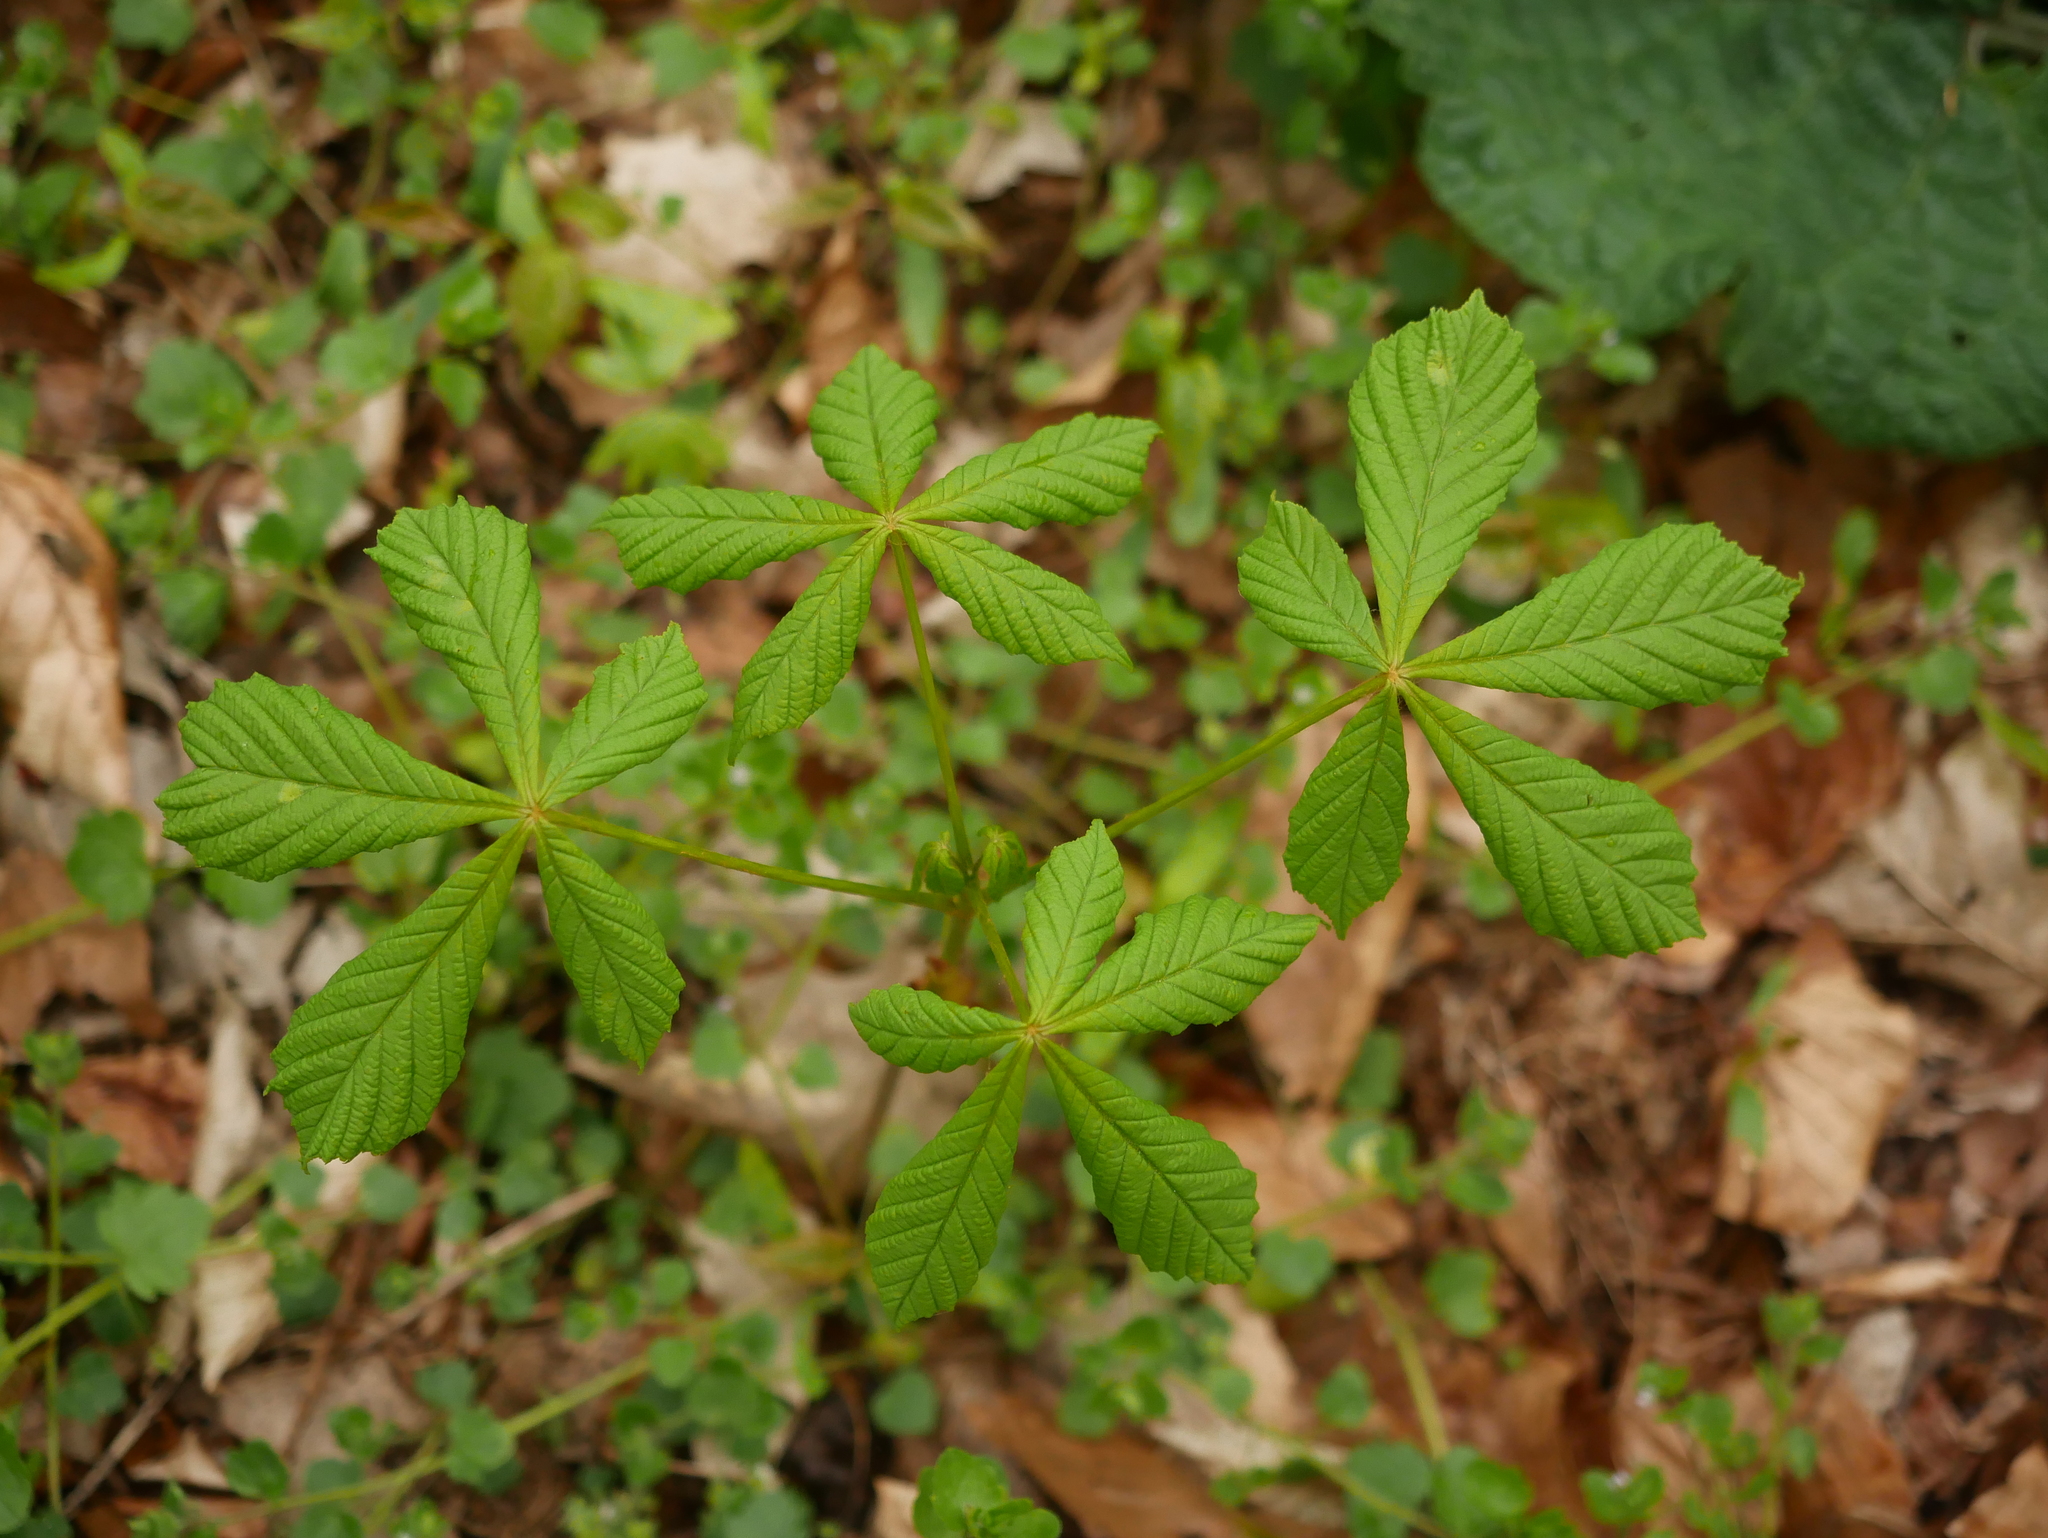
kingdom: Plantae
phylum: Tracheophyta
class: Magnoliopsida
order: Sapindales
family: Sapindaceae
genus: Aesculus
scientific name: Aesculus hippocastanum
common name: Horse-chestnut
